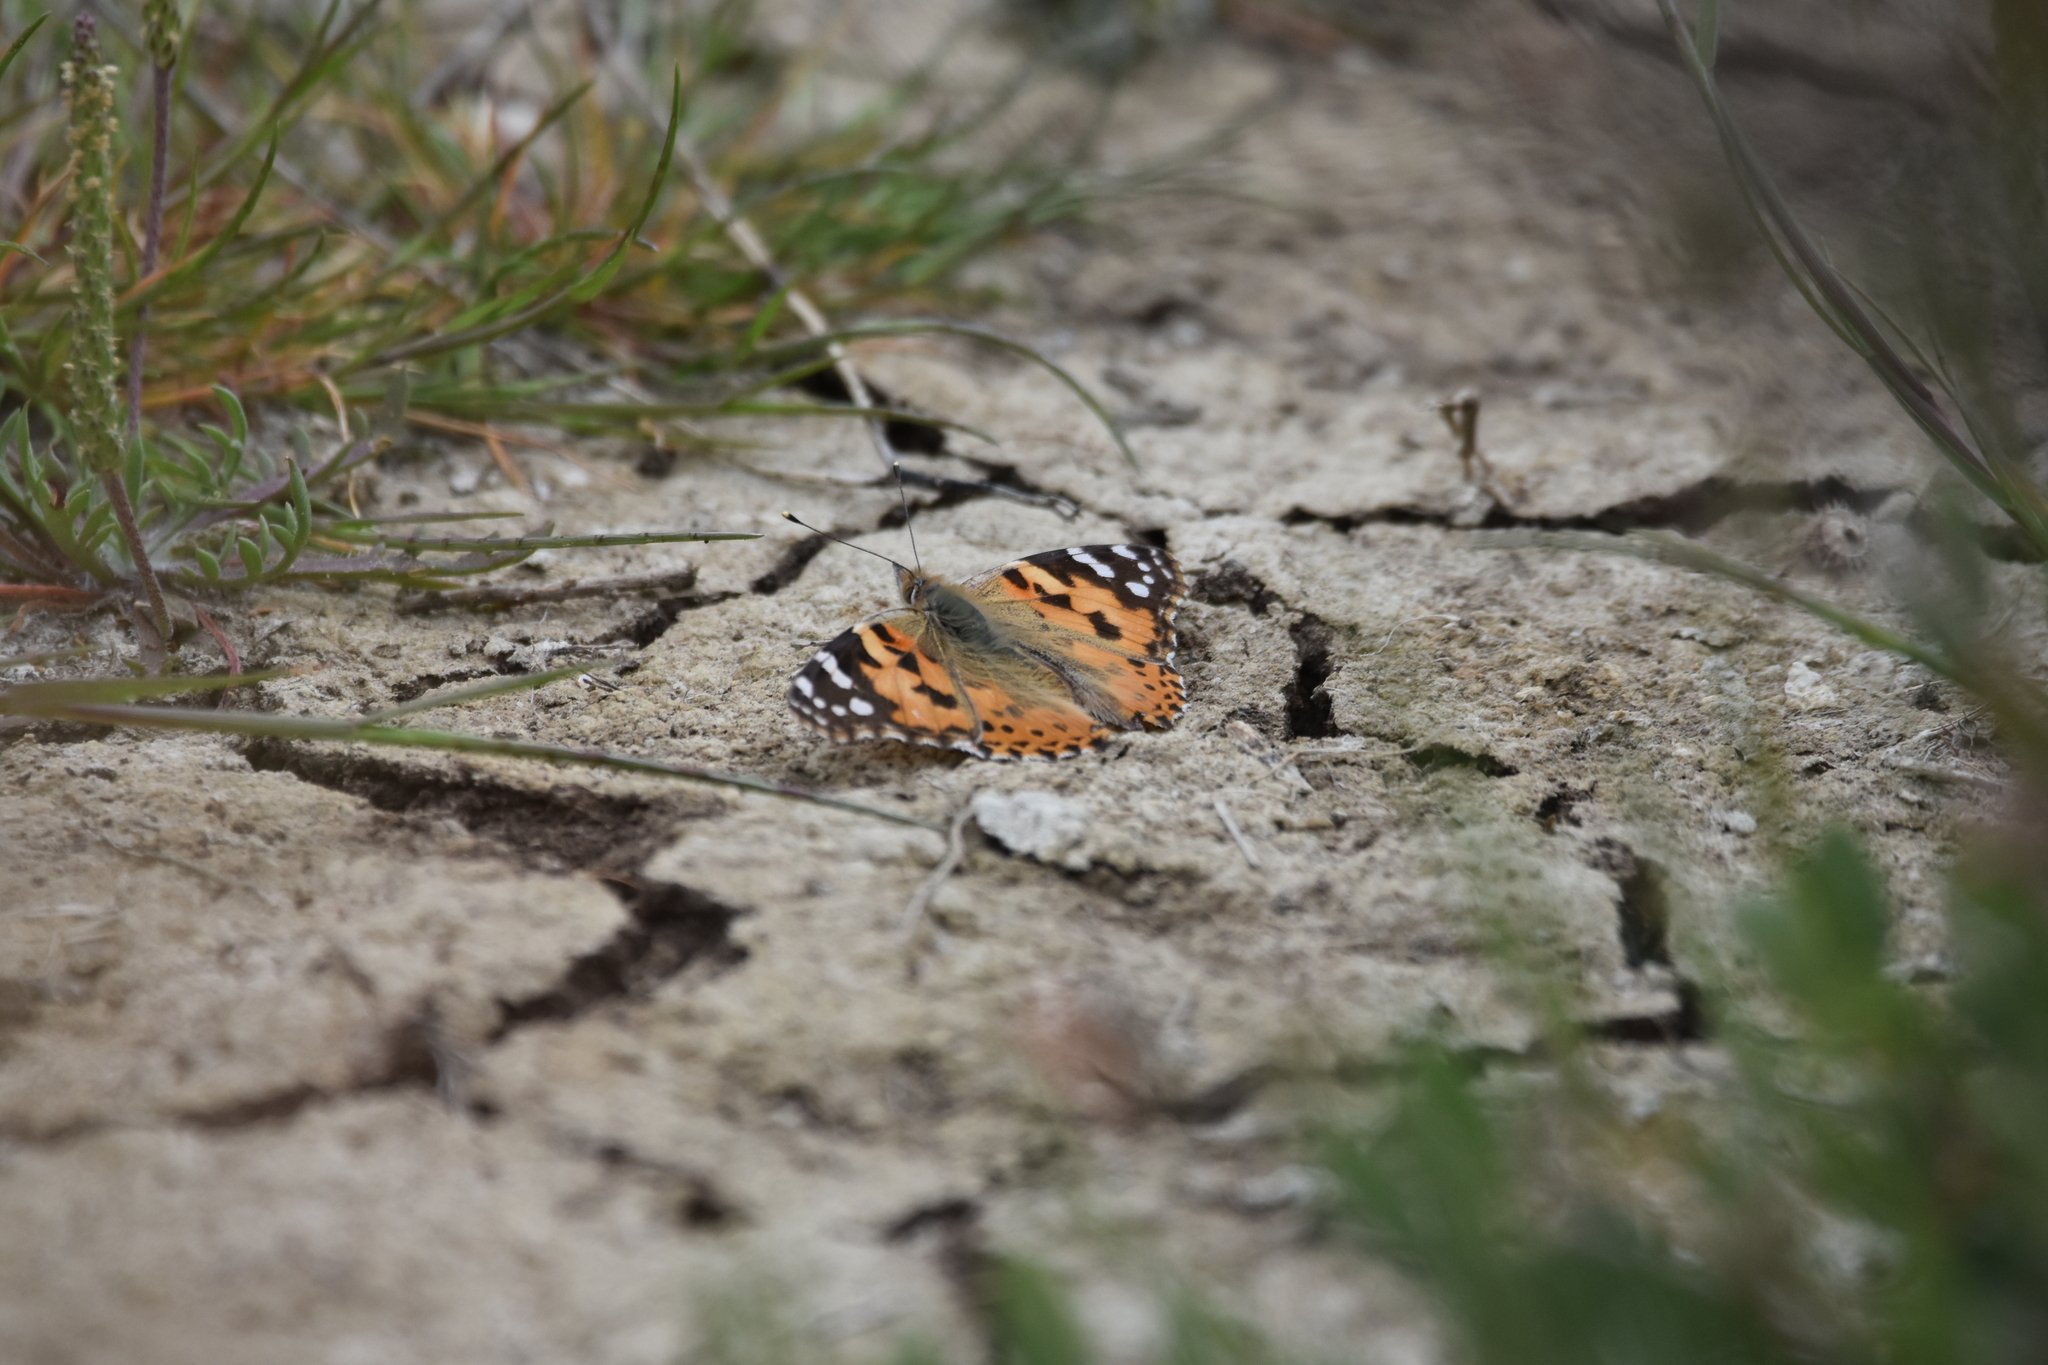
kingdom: Animalia
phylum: Arthropoda
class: Insecta
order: Lepidoptera
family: Nymphalidae
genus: Vanessa
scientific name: Vanessa cardui
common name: Painted lady
